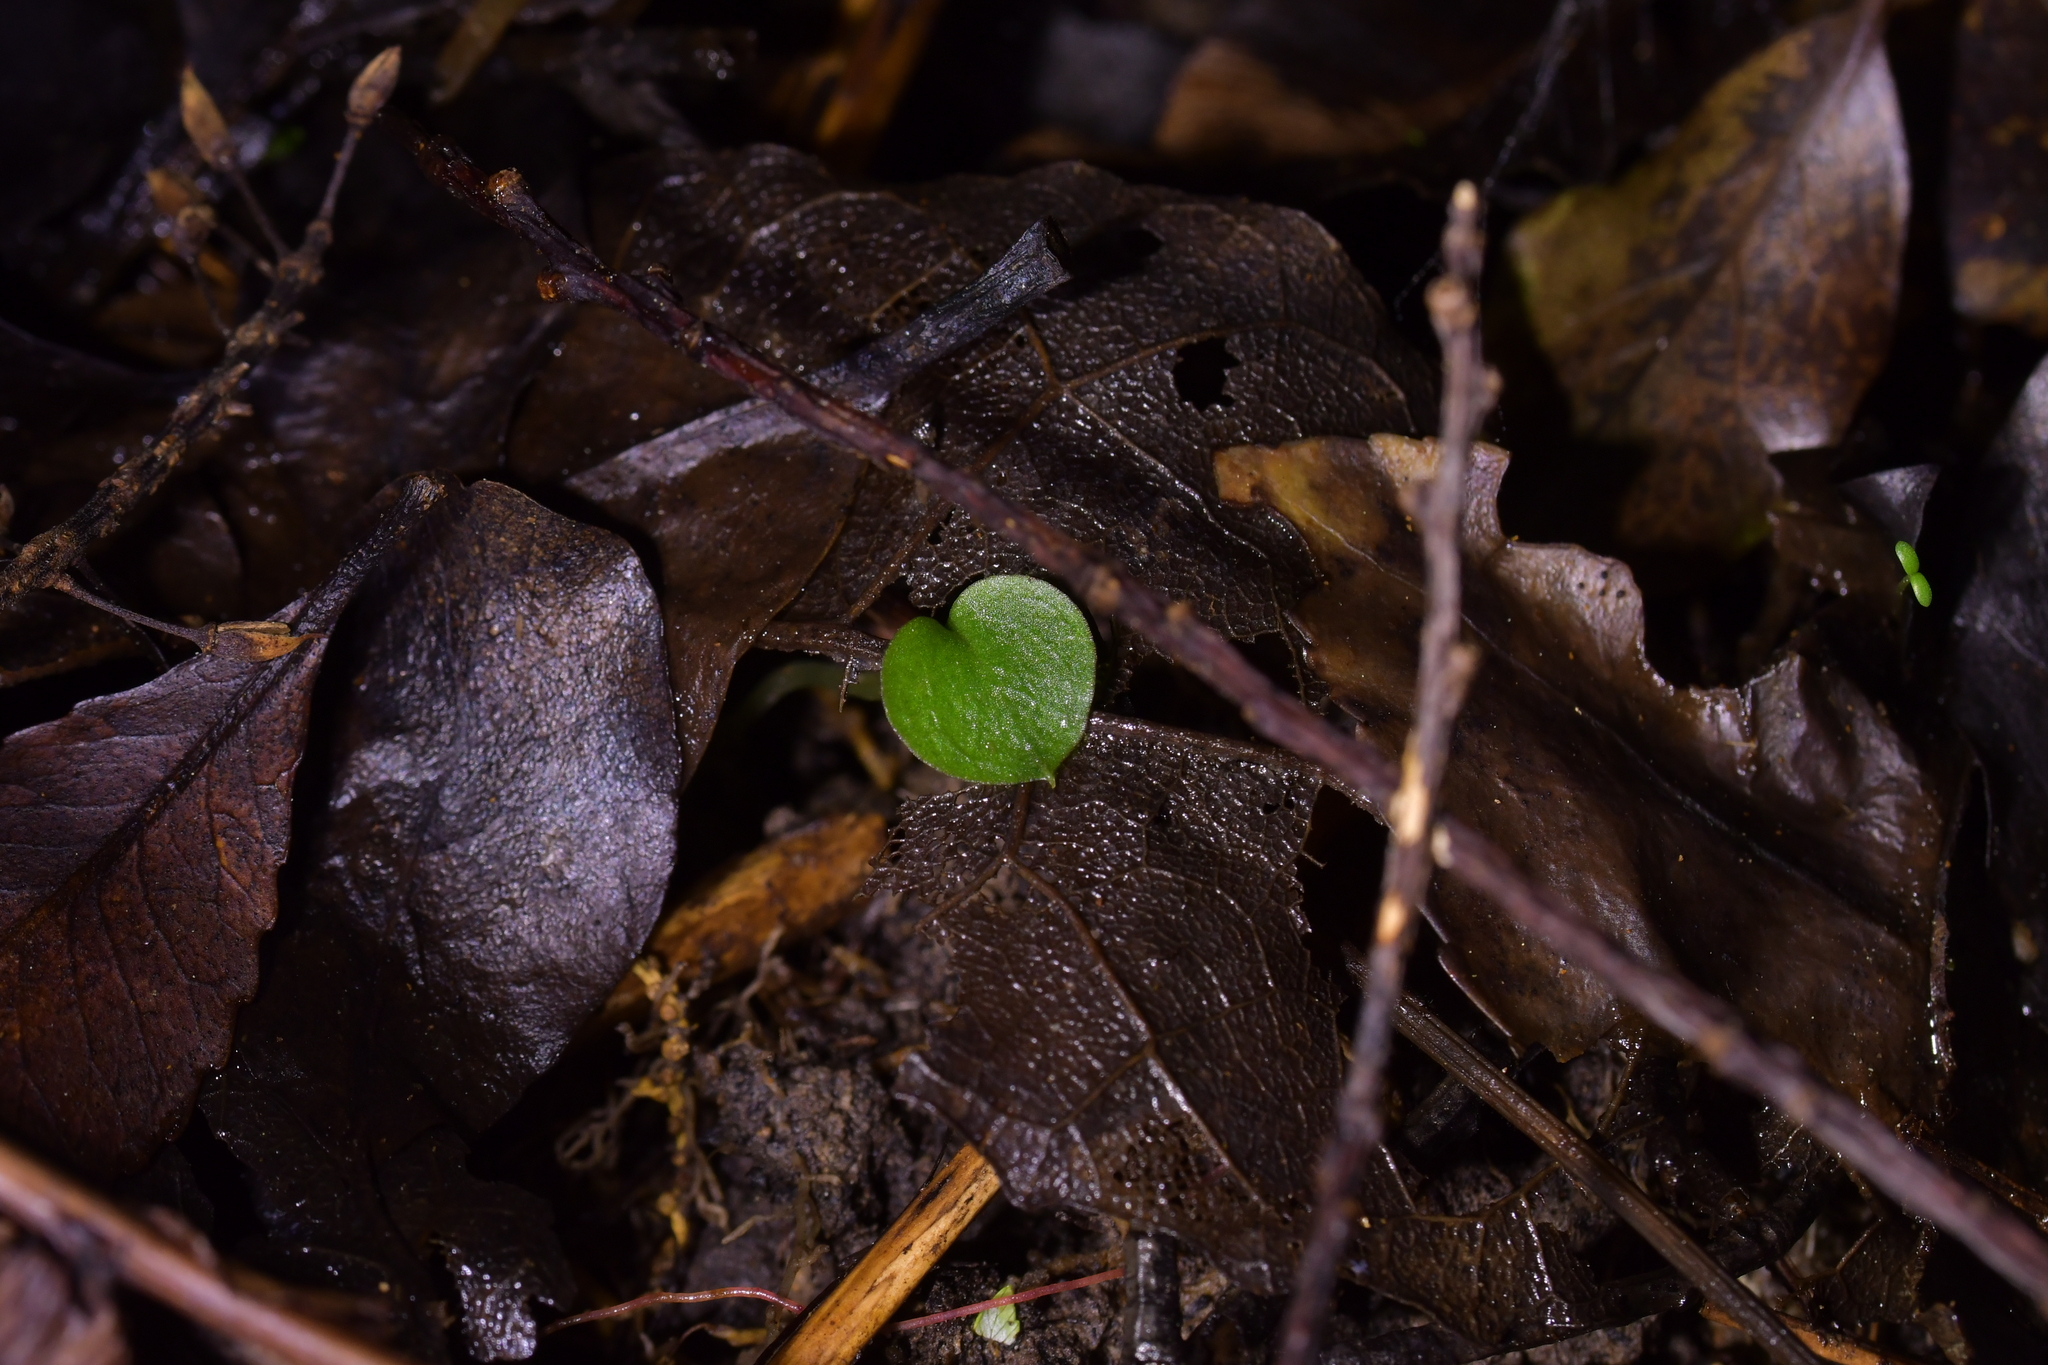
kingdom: Plantae
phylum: Tracheophyta
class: Liliopsida
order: Asparagales
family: Orchidaceae
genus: Corybas
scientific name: Corybas oblongus
